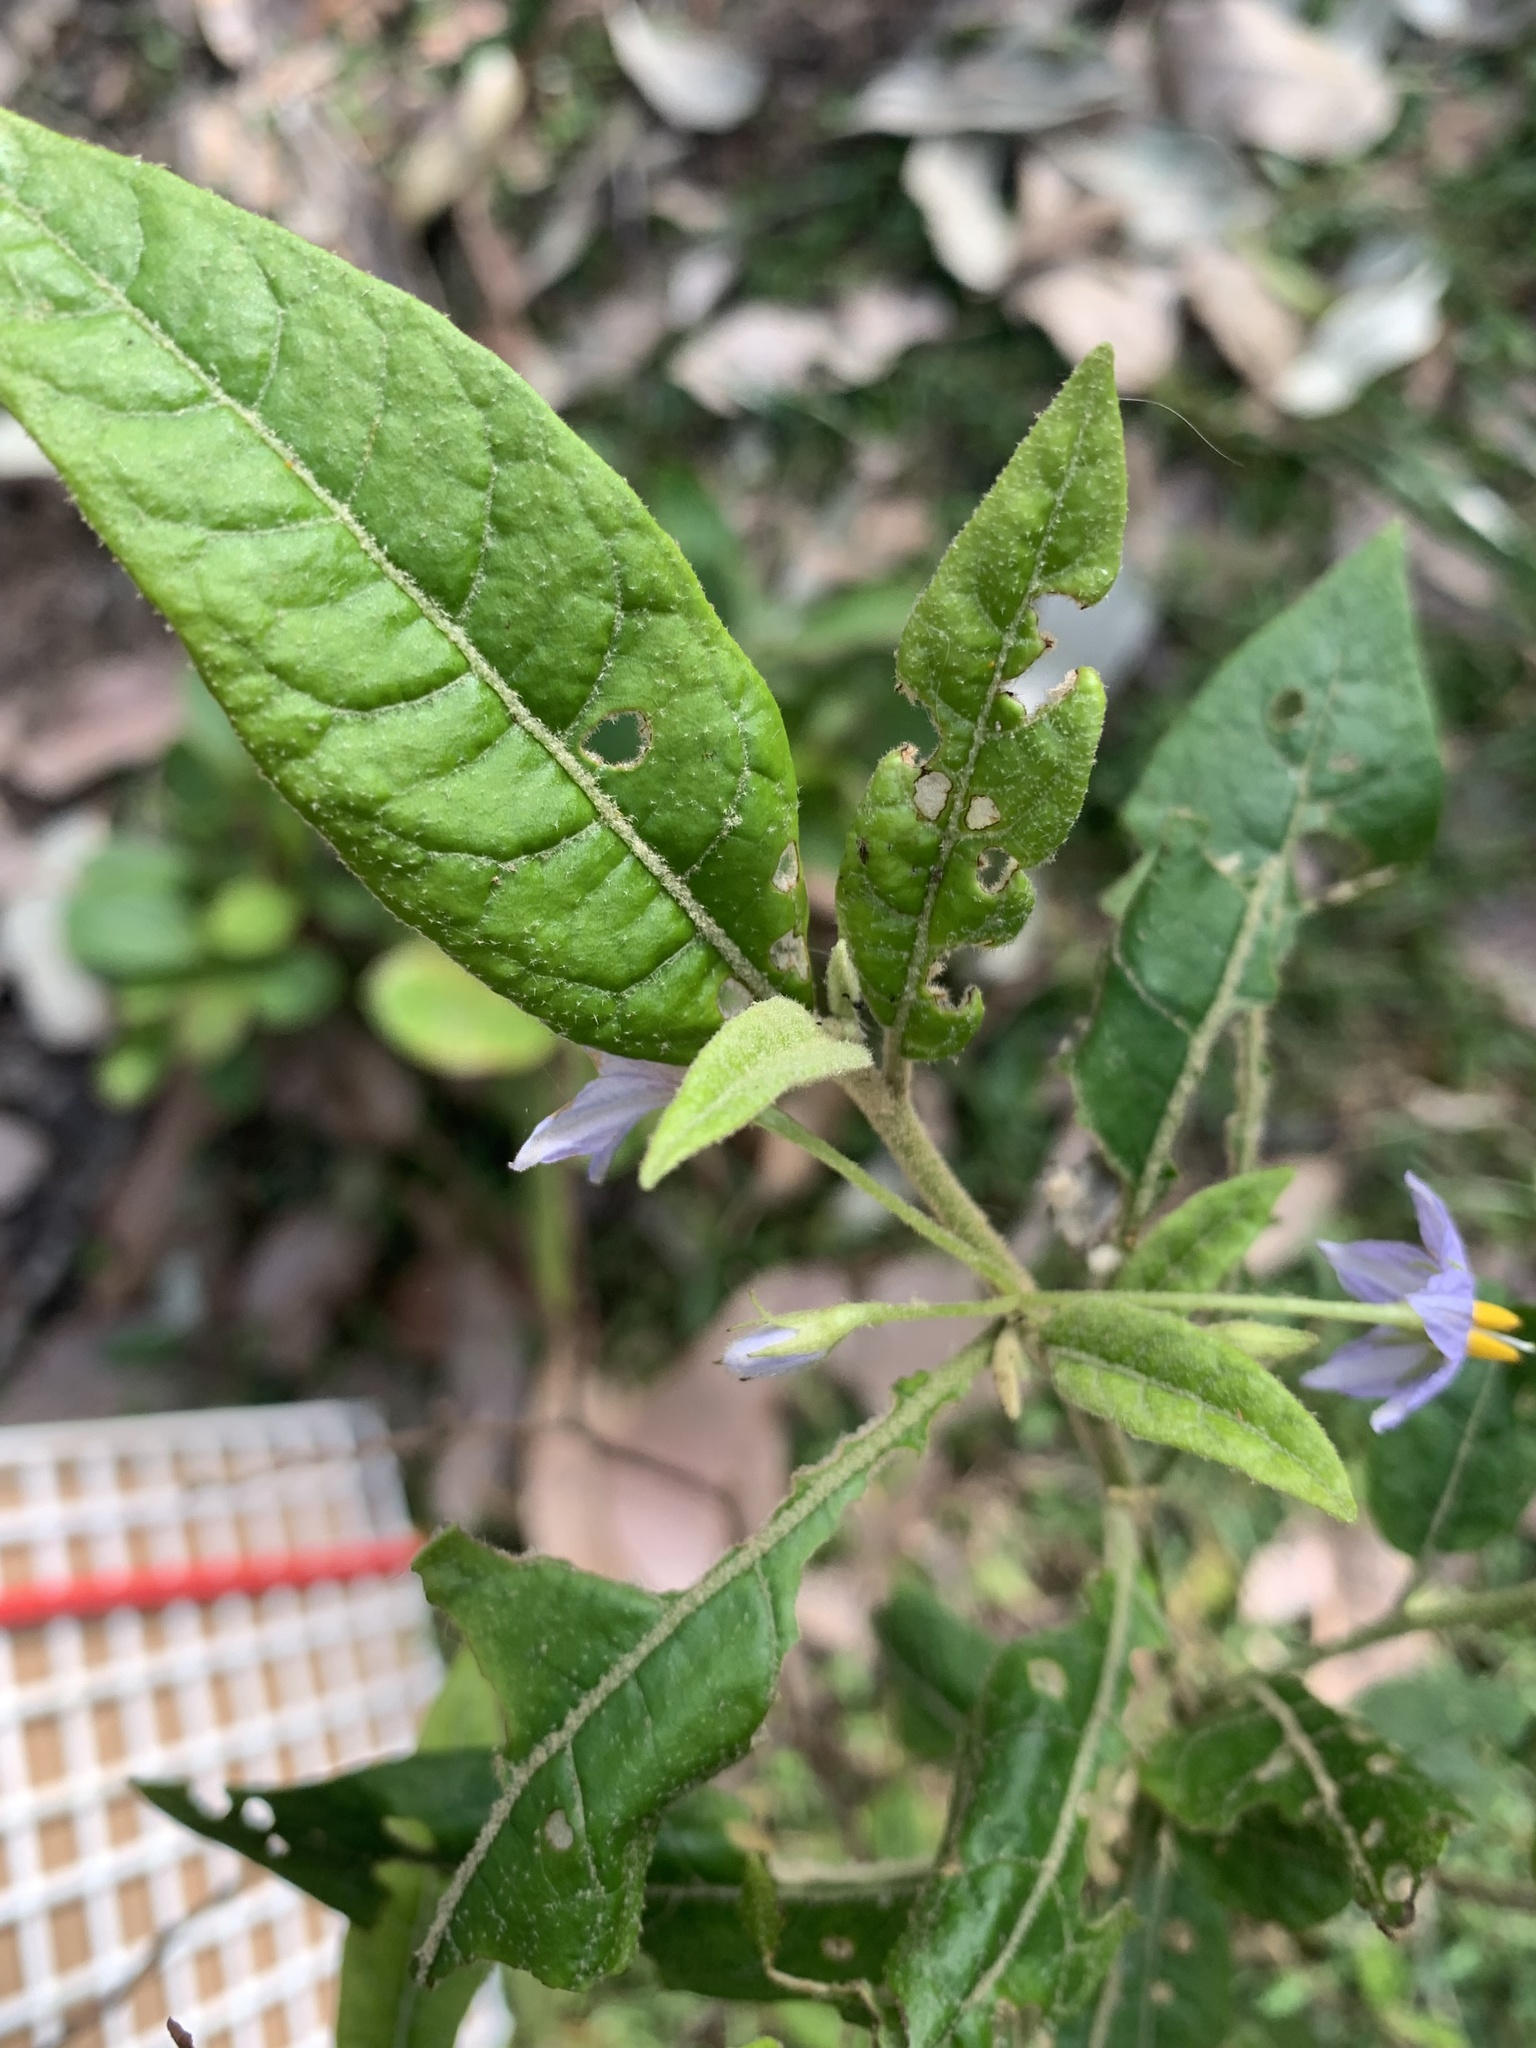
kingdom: Plantae
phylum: Tracheophyta
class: Magnoliopsida
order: Solanales
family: Solanaceae
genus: Solanum
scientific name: Solanum stelligerum
